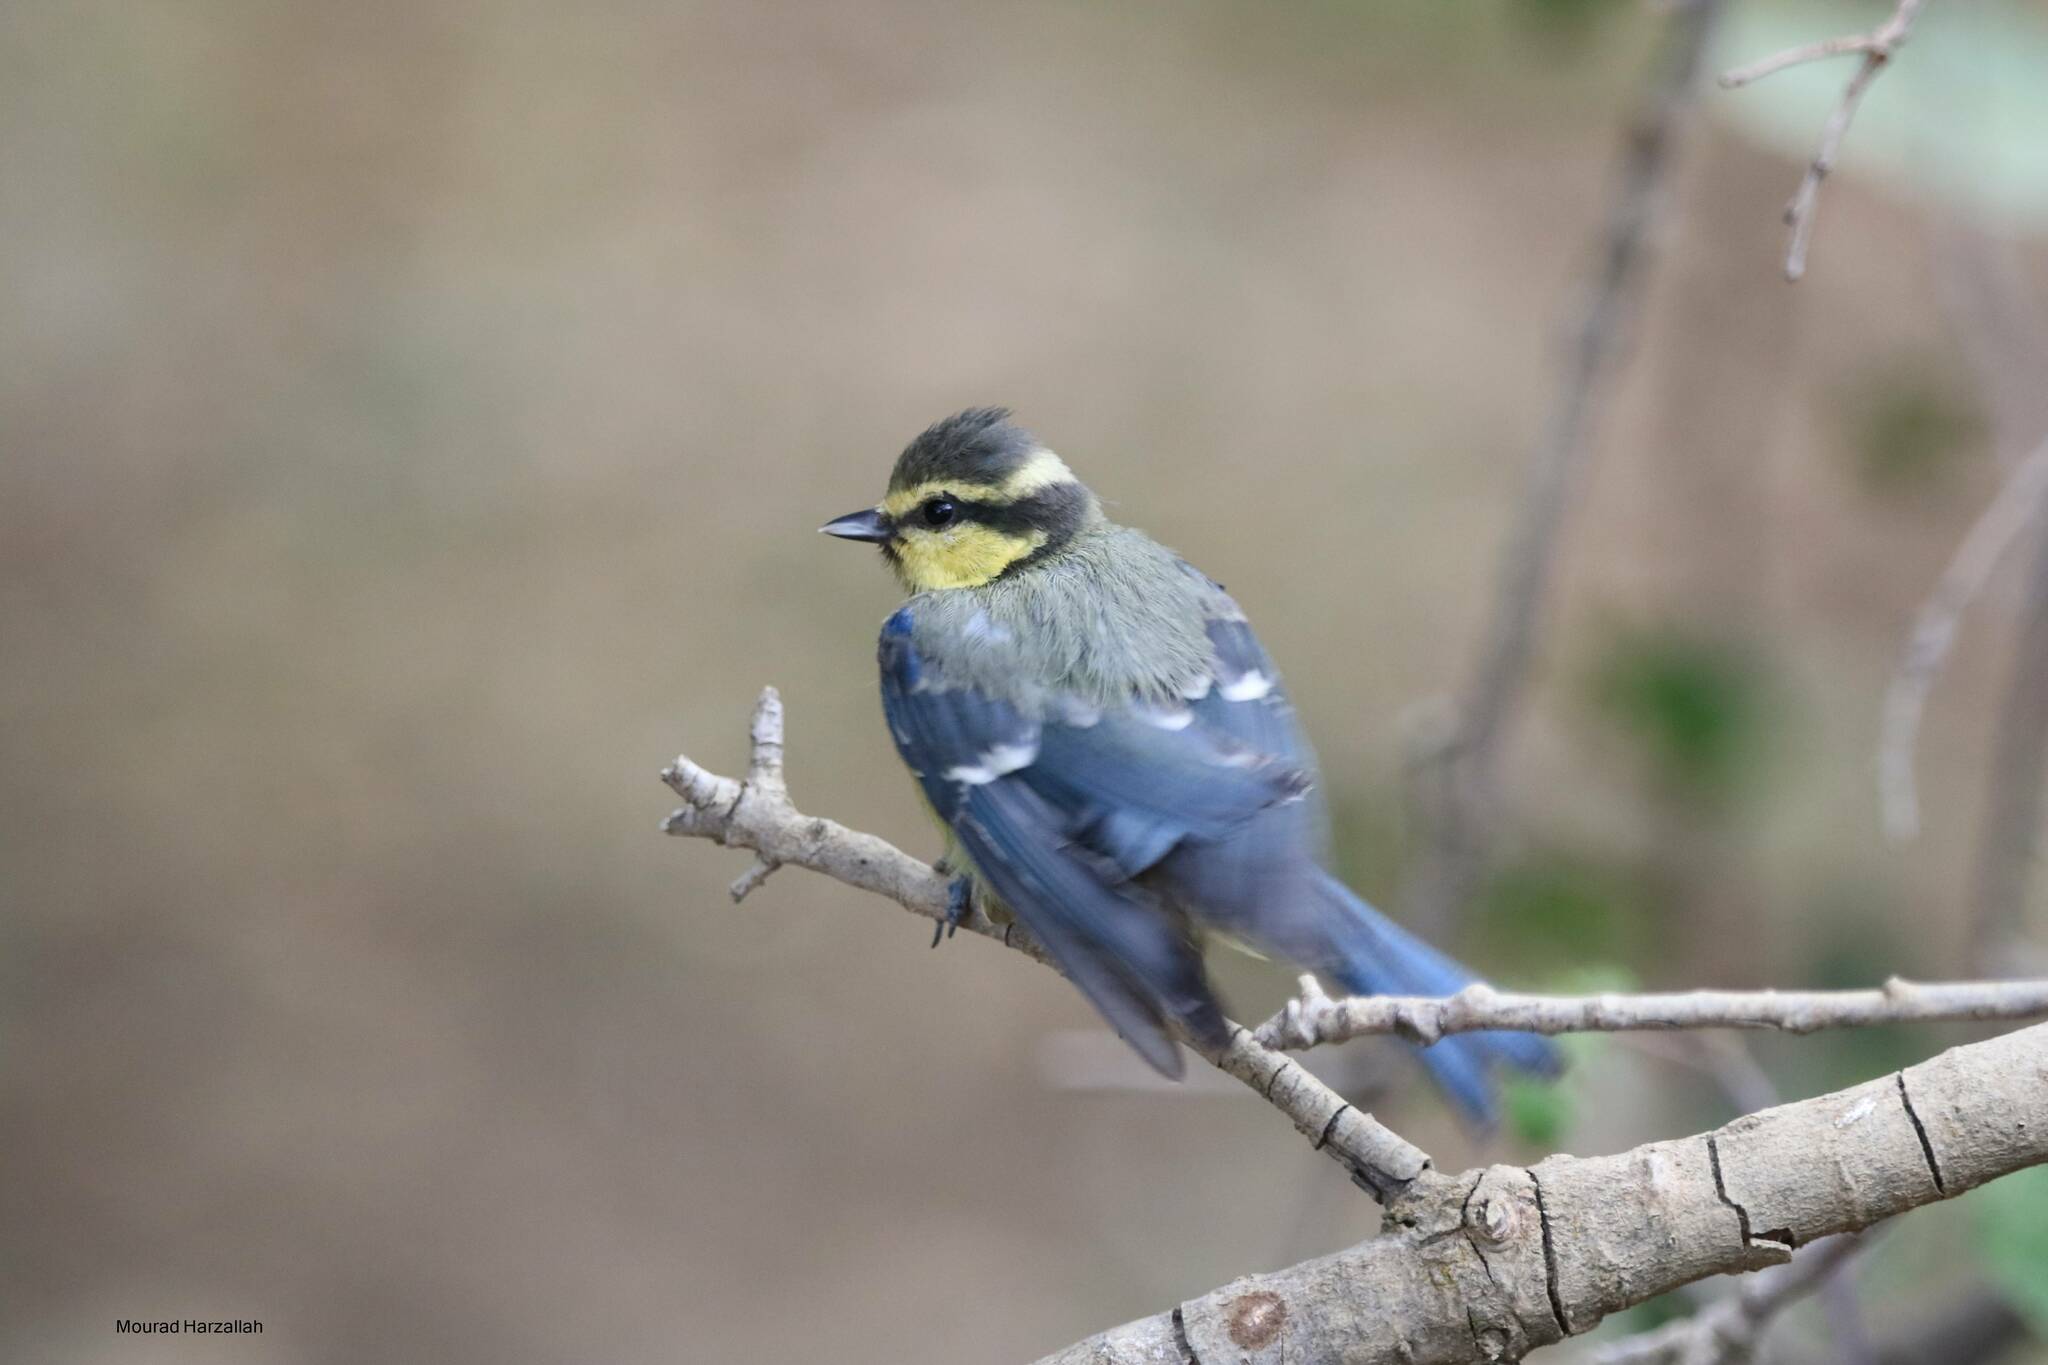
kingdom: Animalia
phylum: Chordata
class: Aves
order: Passeriformes
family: Paridae
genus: Cyanistes
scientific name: Cyanistes teneriffae
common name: African blue tit
